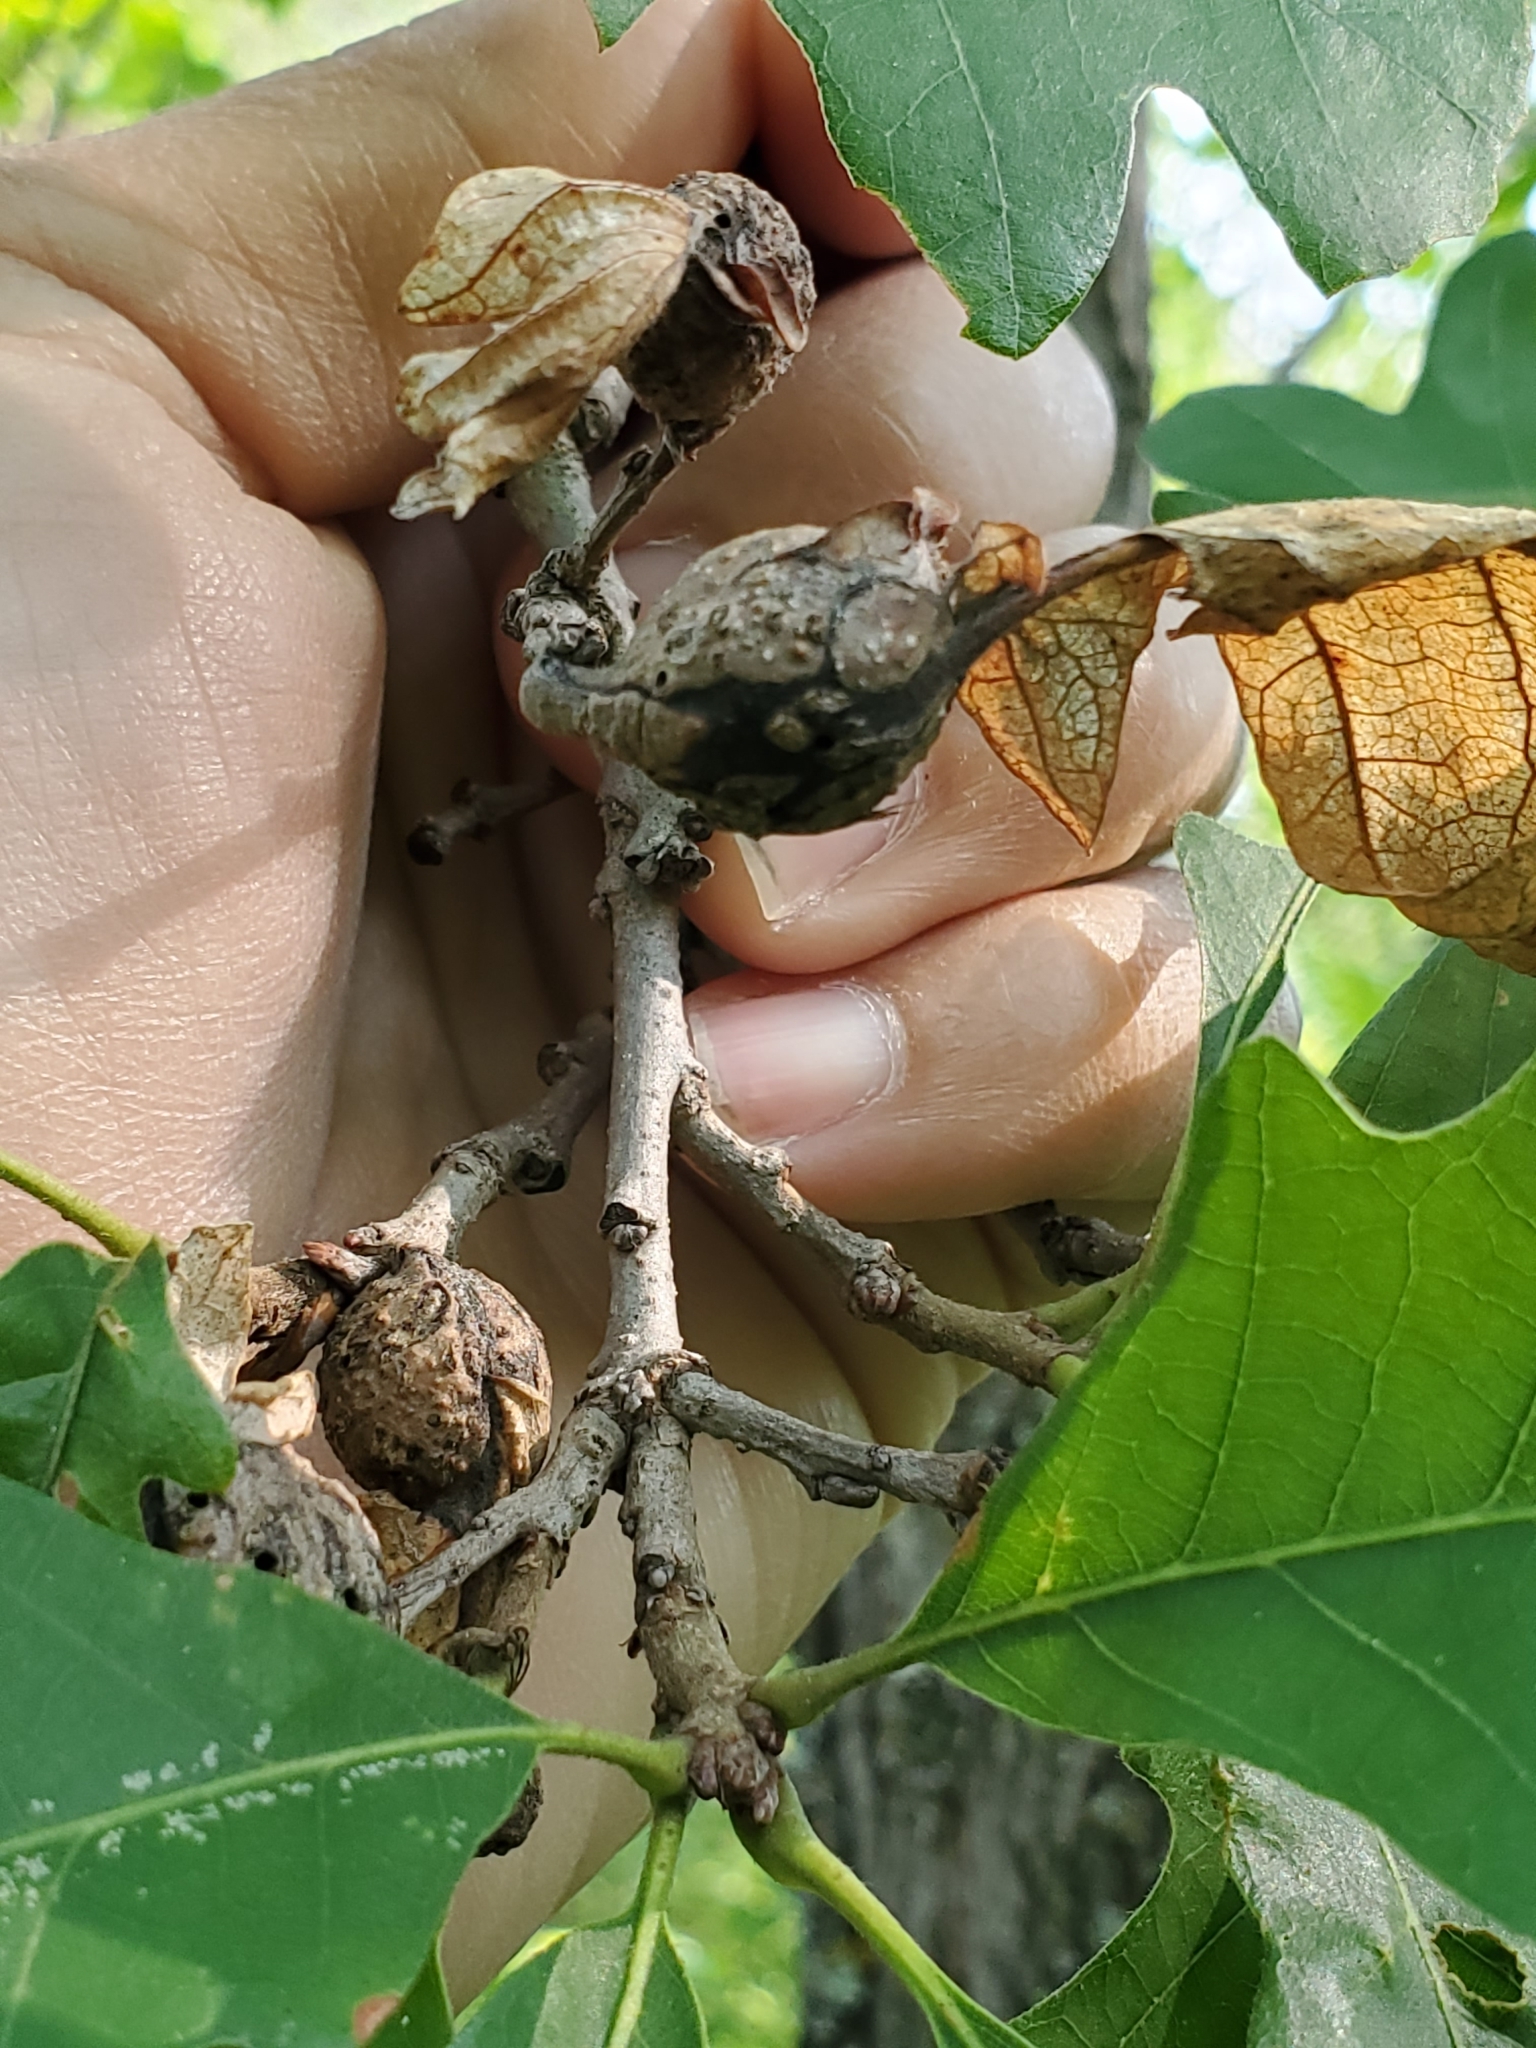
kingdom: Animalia
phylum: Arthropoda
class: Insecta
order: Hymenoptera
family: Cynipidae
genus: Andricus
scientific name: Andricus
